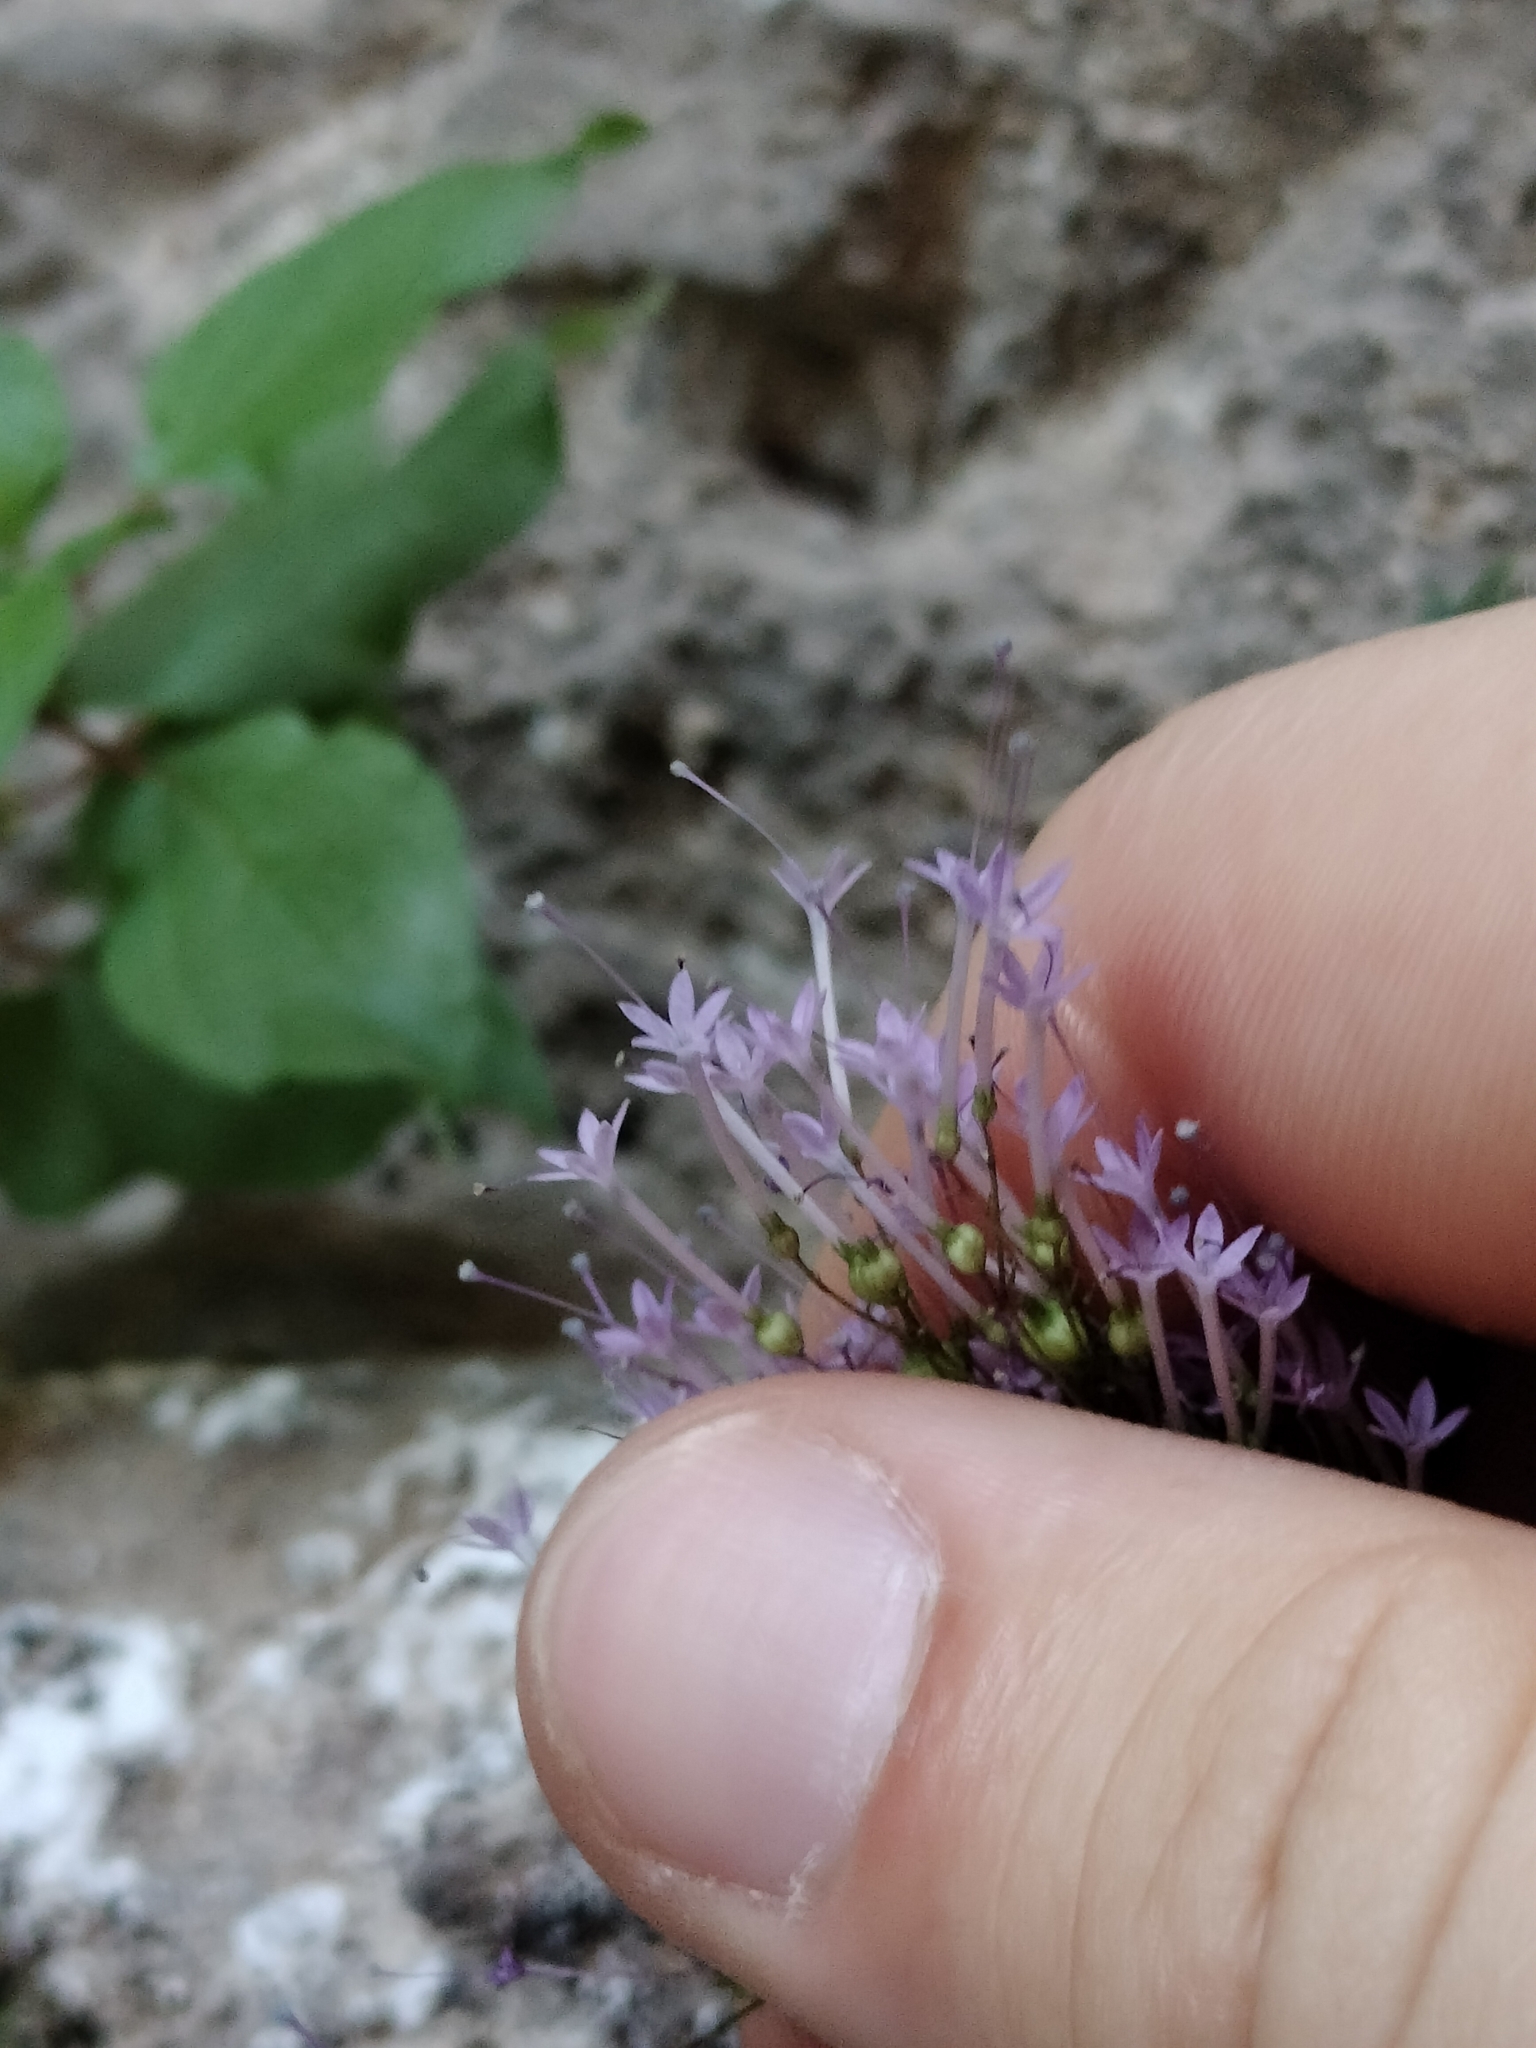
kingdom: Plantae
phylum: Tracheophyta
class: Magnoliopsida
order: Asterales
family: Campanulaceae
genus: Trachelium
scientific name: Trachelium caeruleum
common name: Throatwort
